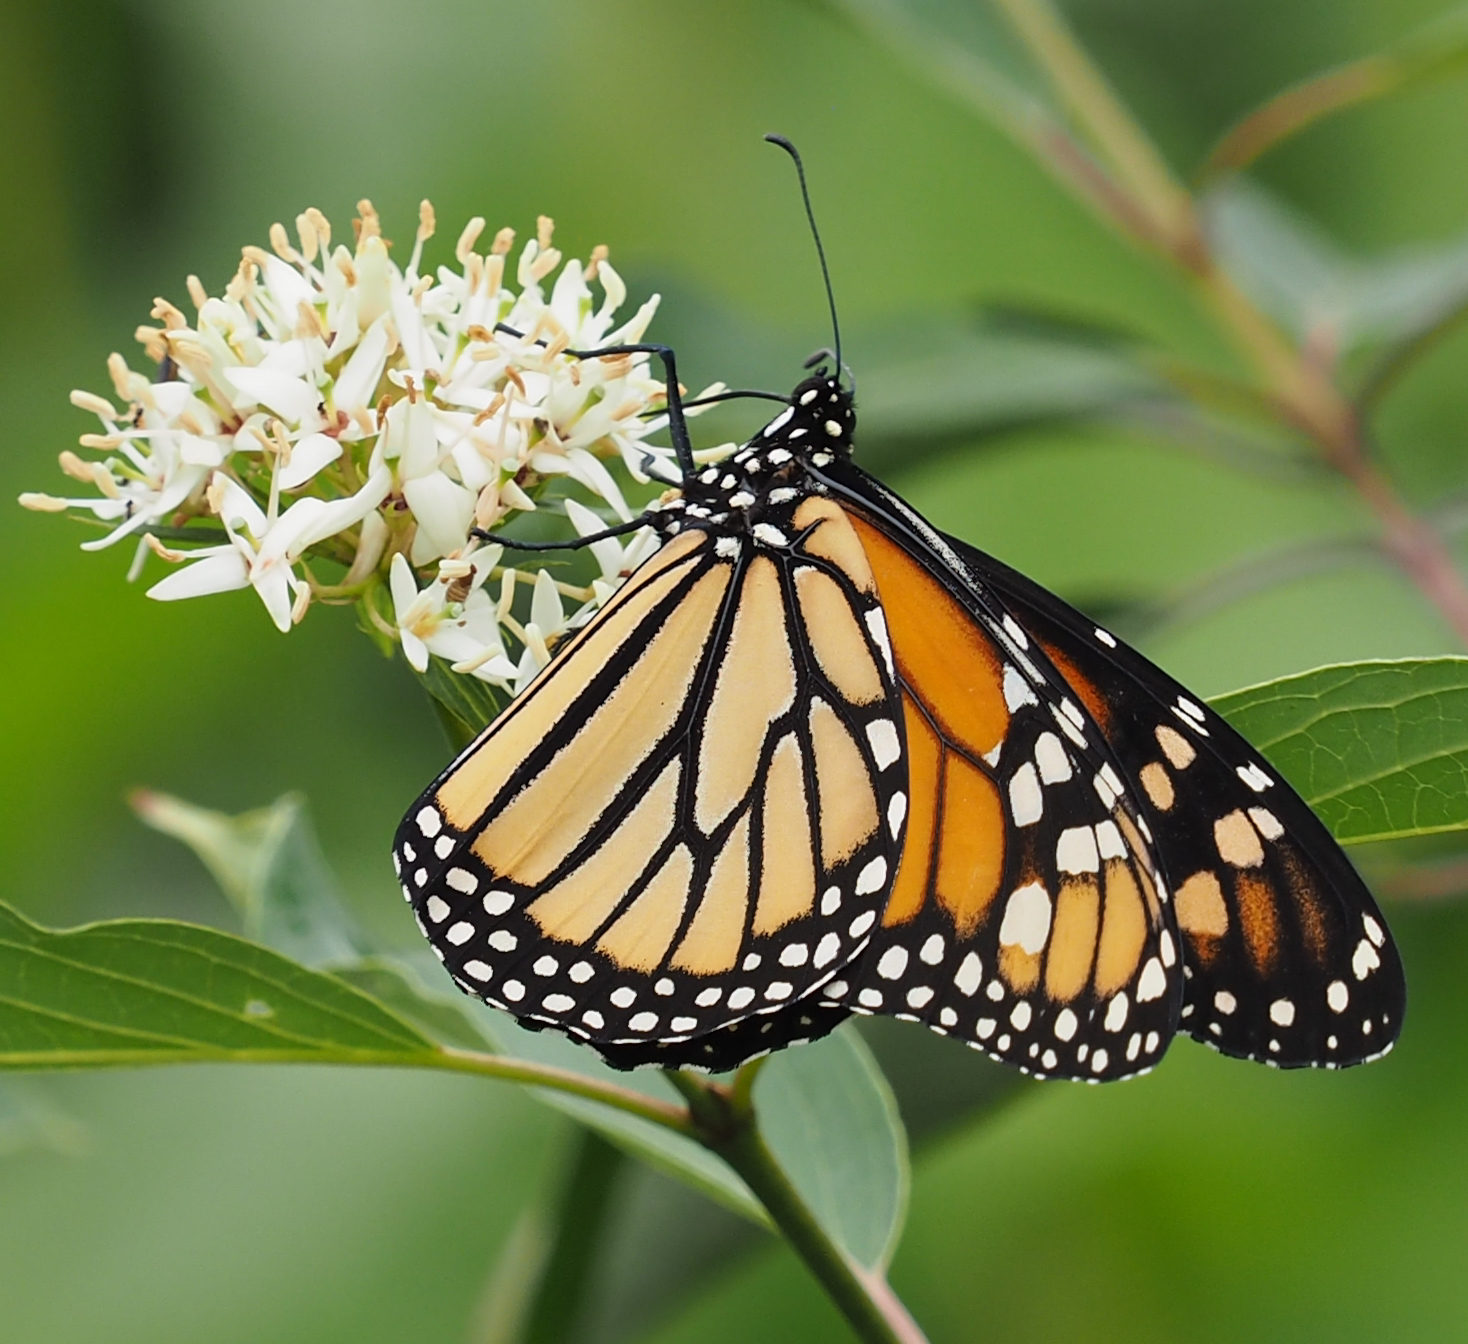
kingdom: Animalia
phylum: Arthropoda
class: Insecta
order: Lepidoptera
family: Nymphalidae
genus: Danaus
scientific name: Danaus plexippus
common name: Monarch
